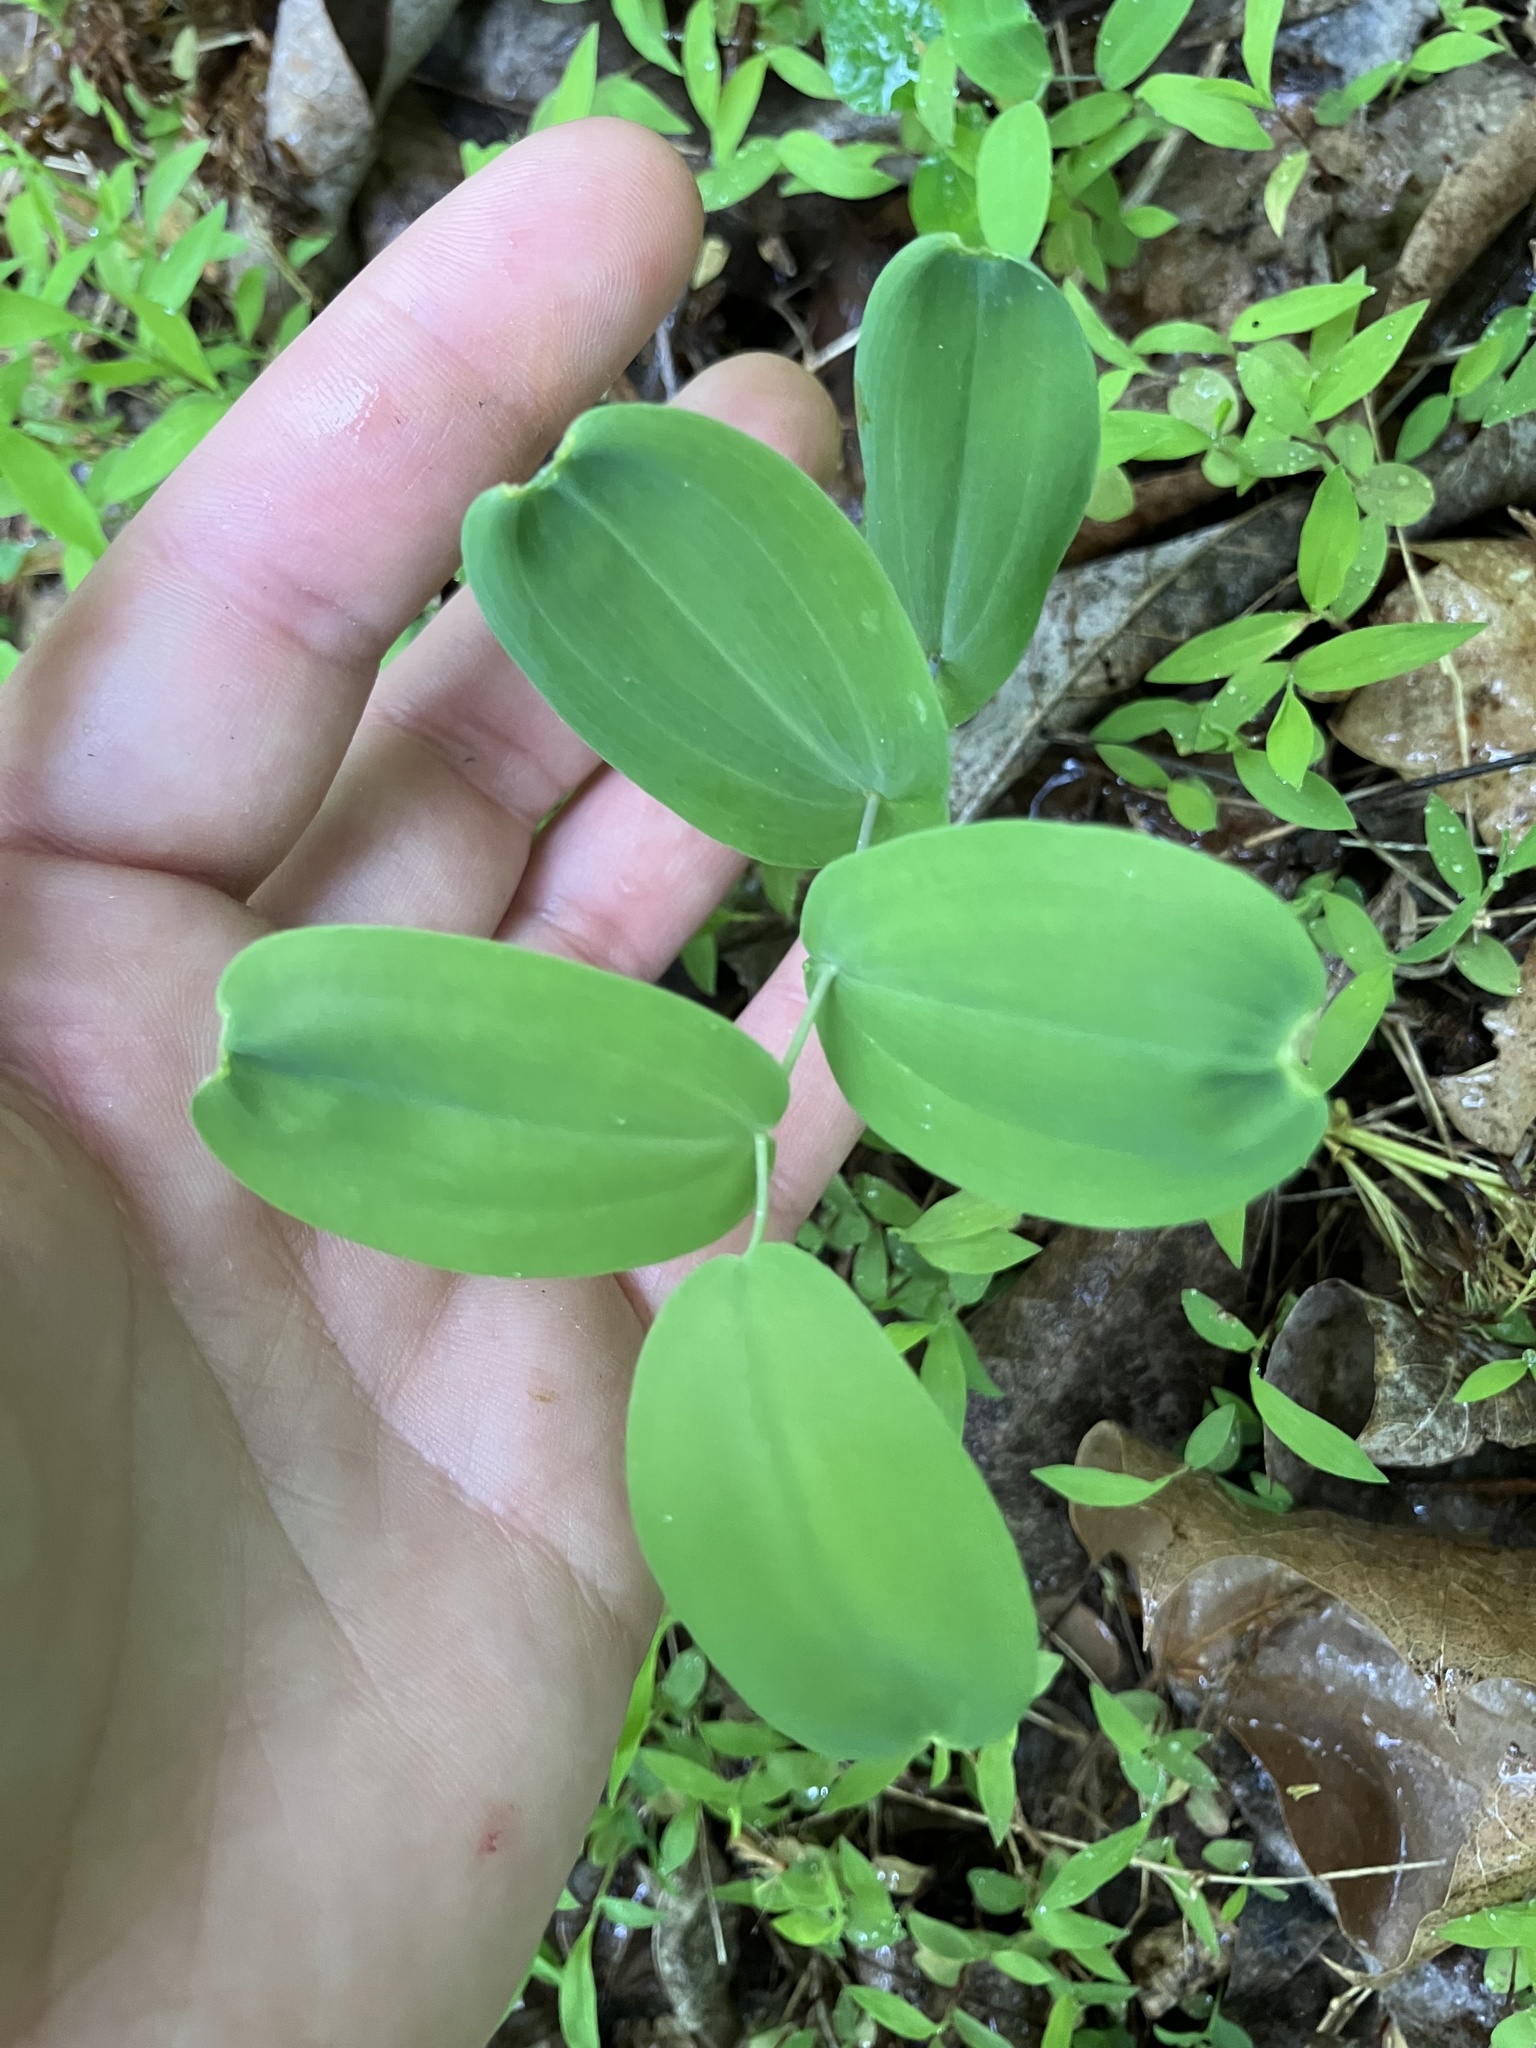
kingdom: Plantae
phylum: Tracheophyta
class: Liliopsida
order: Liliales
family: Colchicaceae
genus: Uvularia
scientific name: Uvularia perfoliata
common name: Perfoliate bellwort
